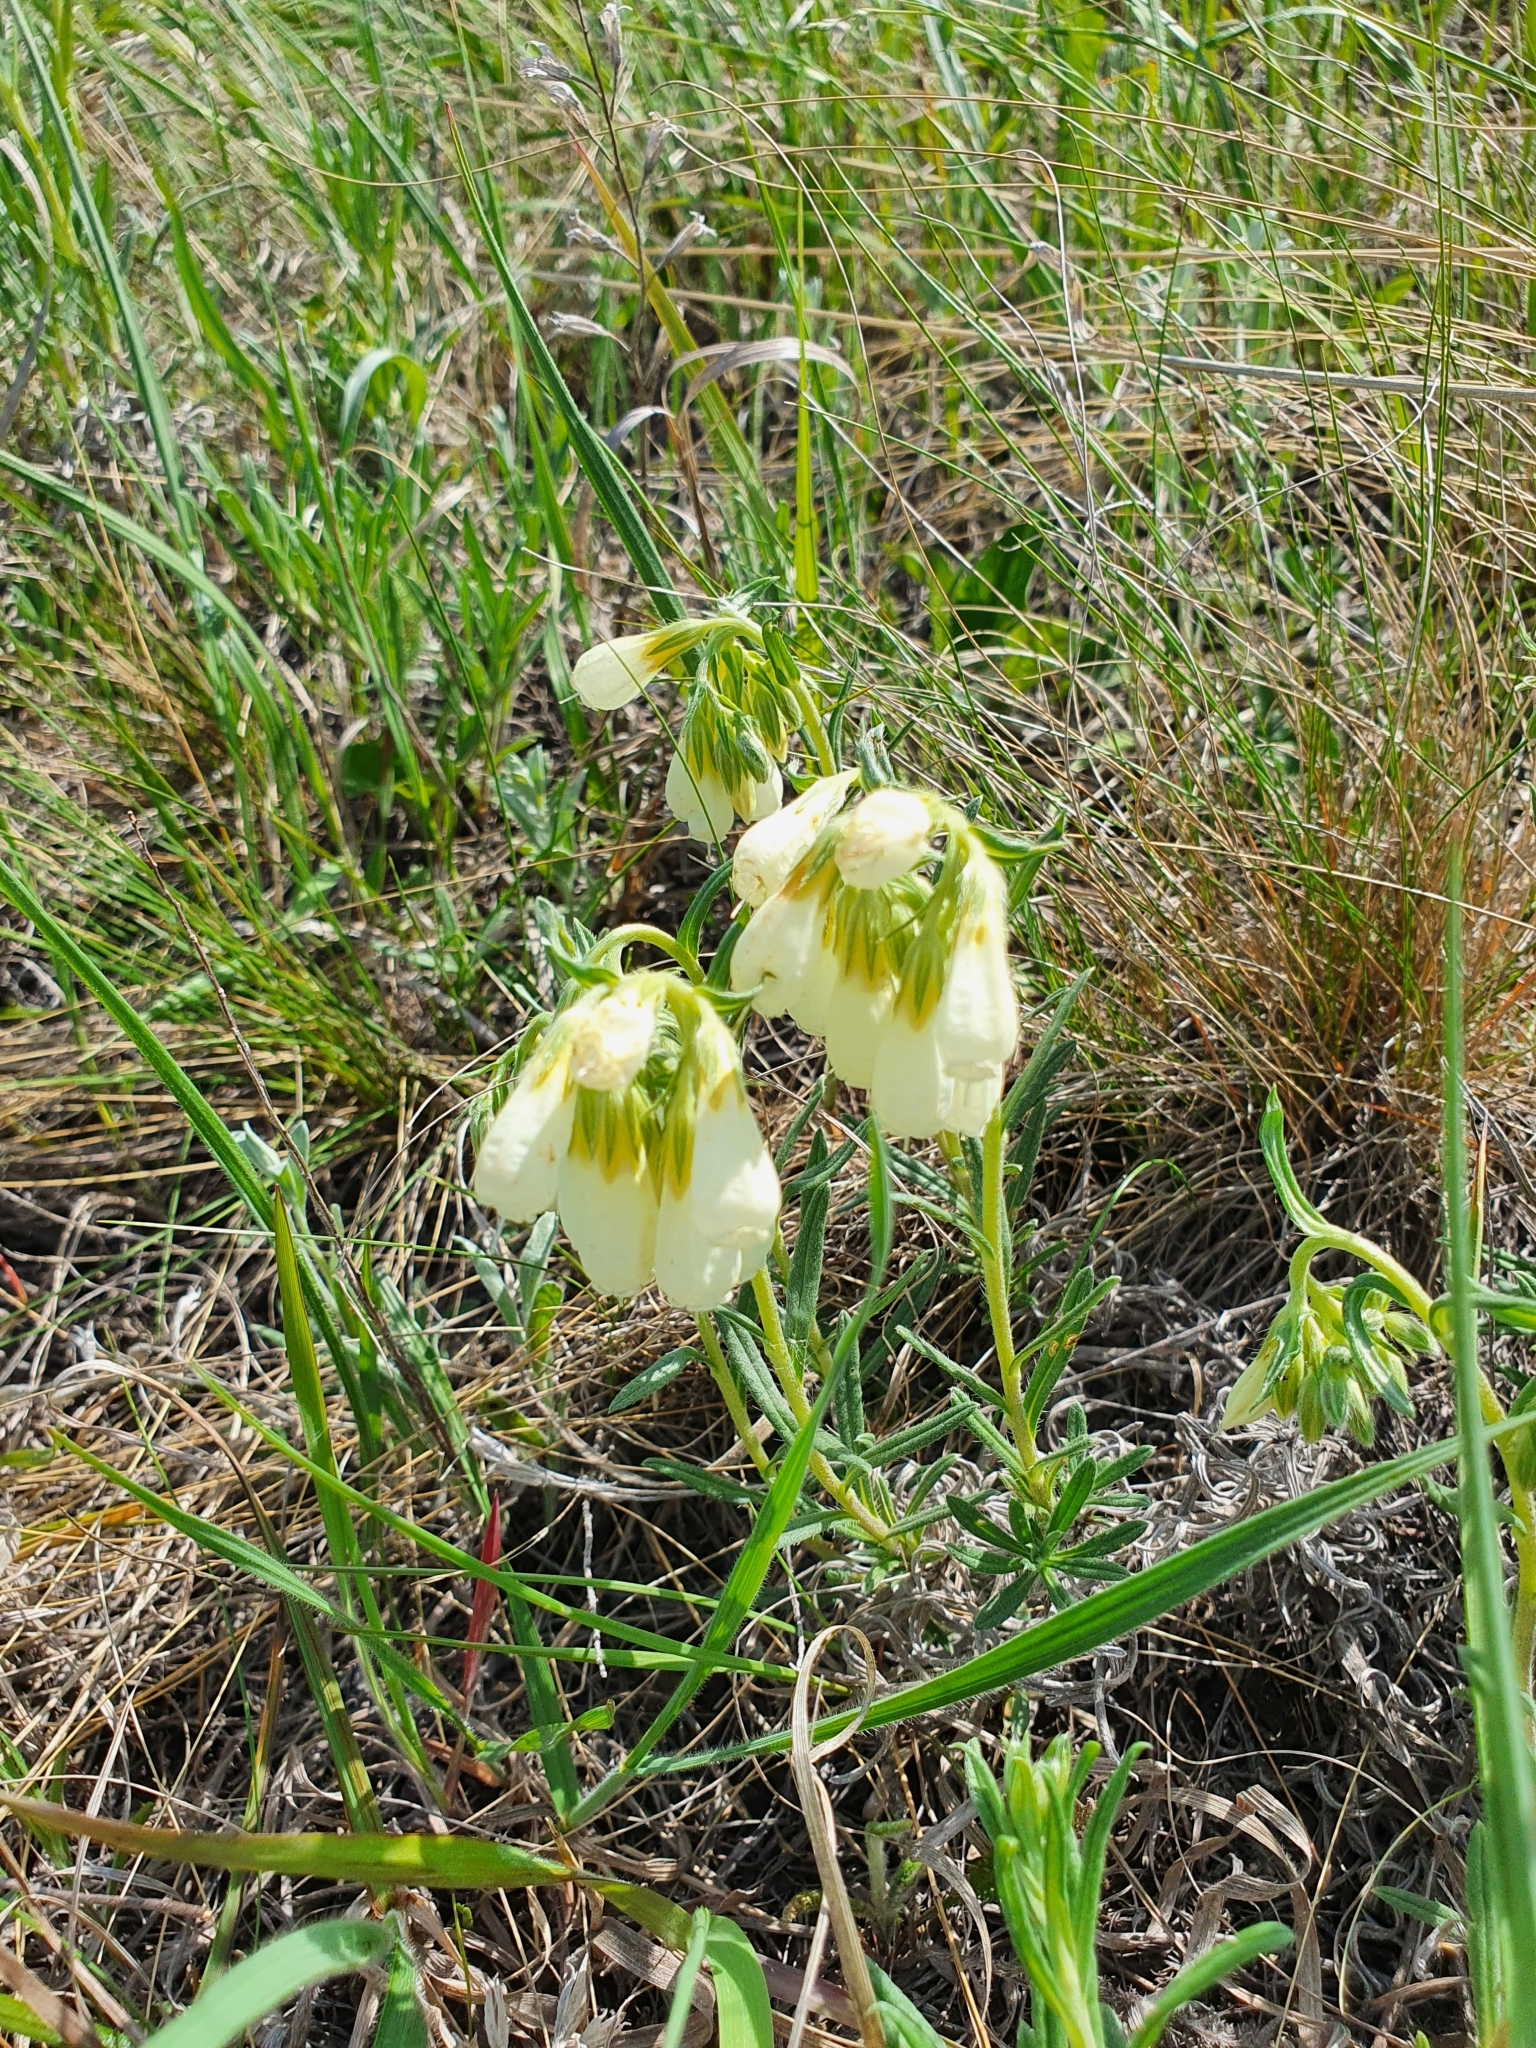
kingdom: Plantae
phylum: Tracheophyta
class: Magnoliopsida
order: Boraginales
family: Boraginaceae
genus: Onosma
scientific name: Onosma simplicissima
